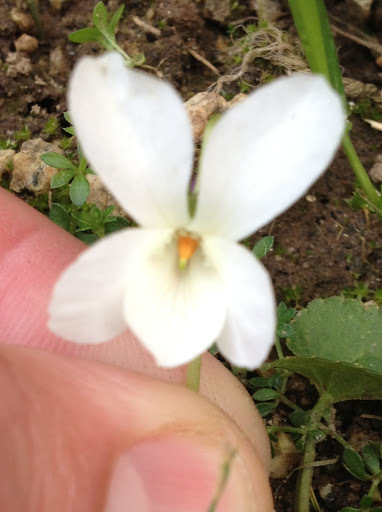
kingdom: Plantae
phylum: Tracheophyta
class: Magnoliopsida
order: Malpighiales
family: Violaceae
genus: Viola
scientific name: Viola odorata
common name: Sweet violet
